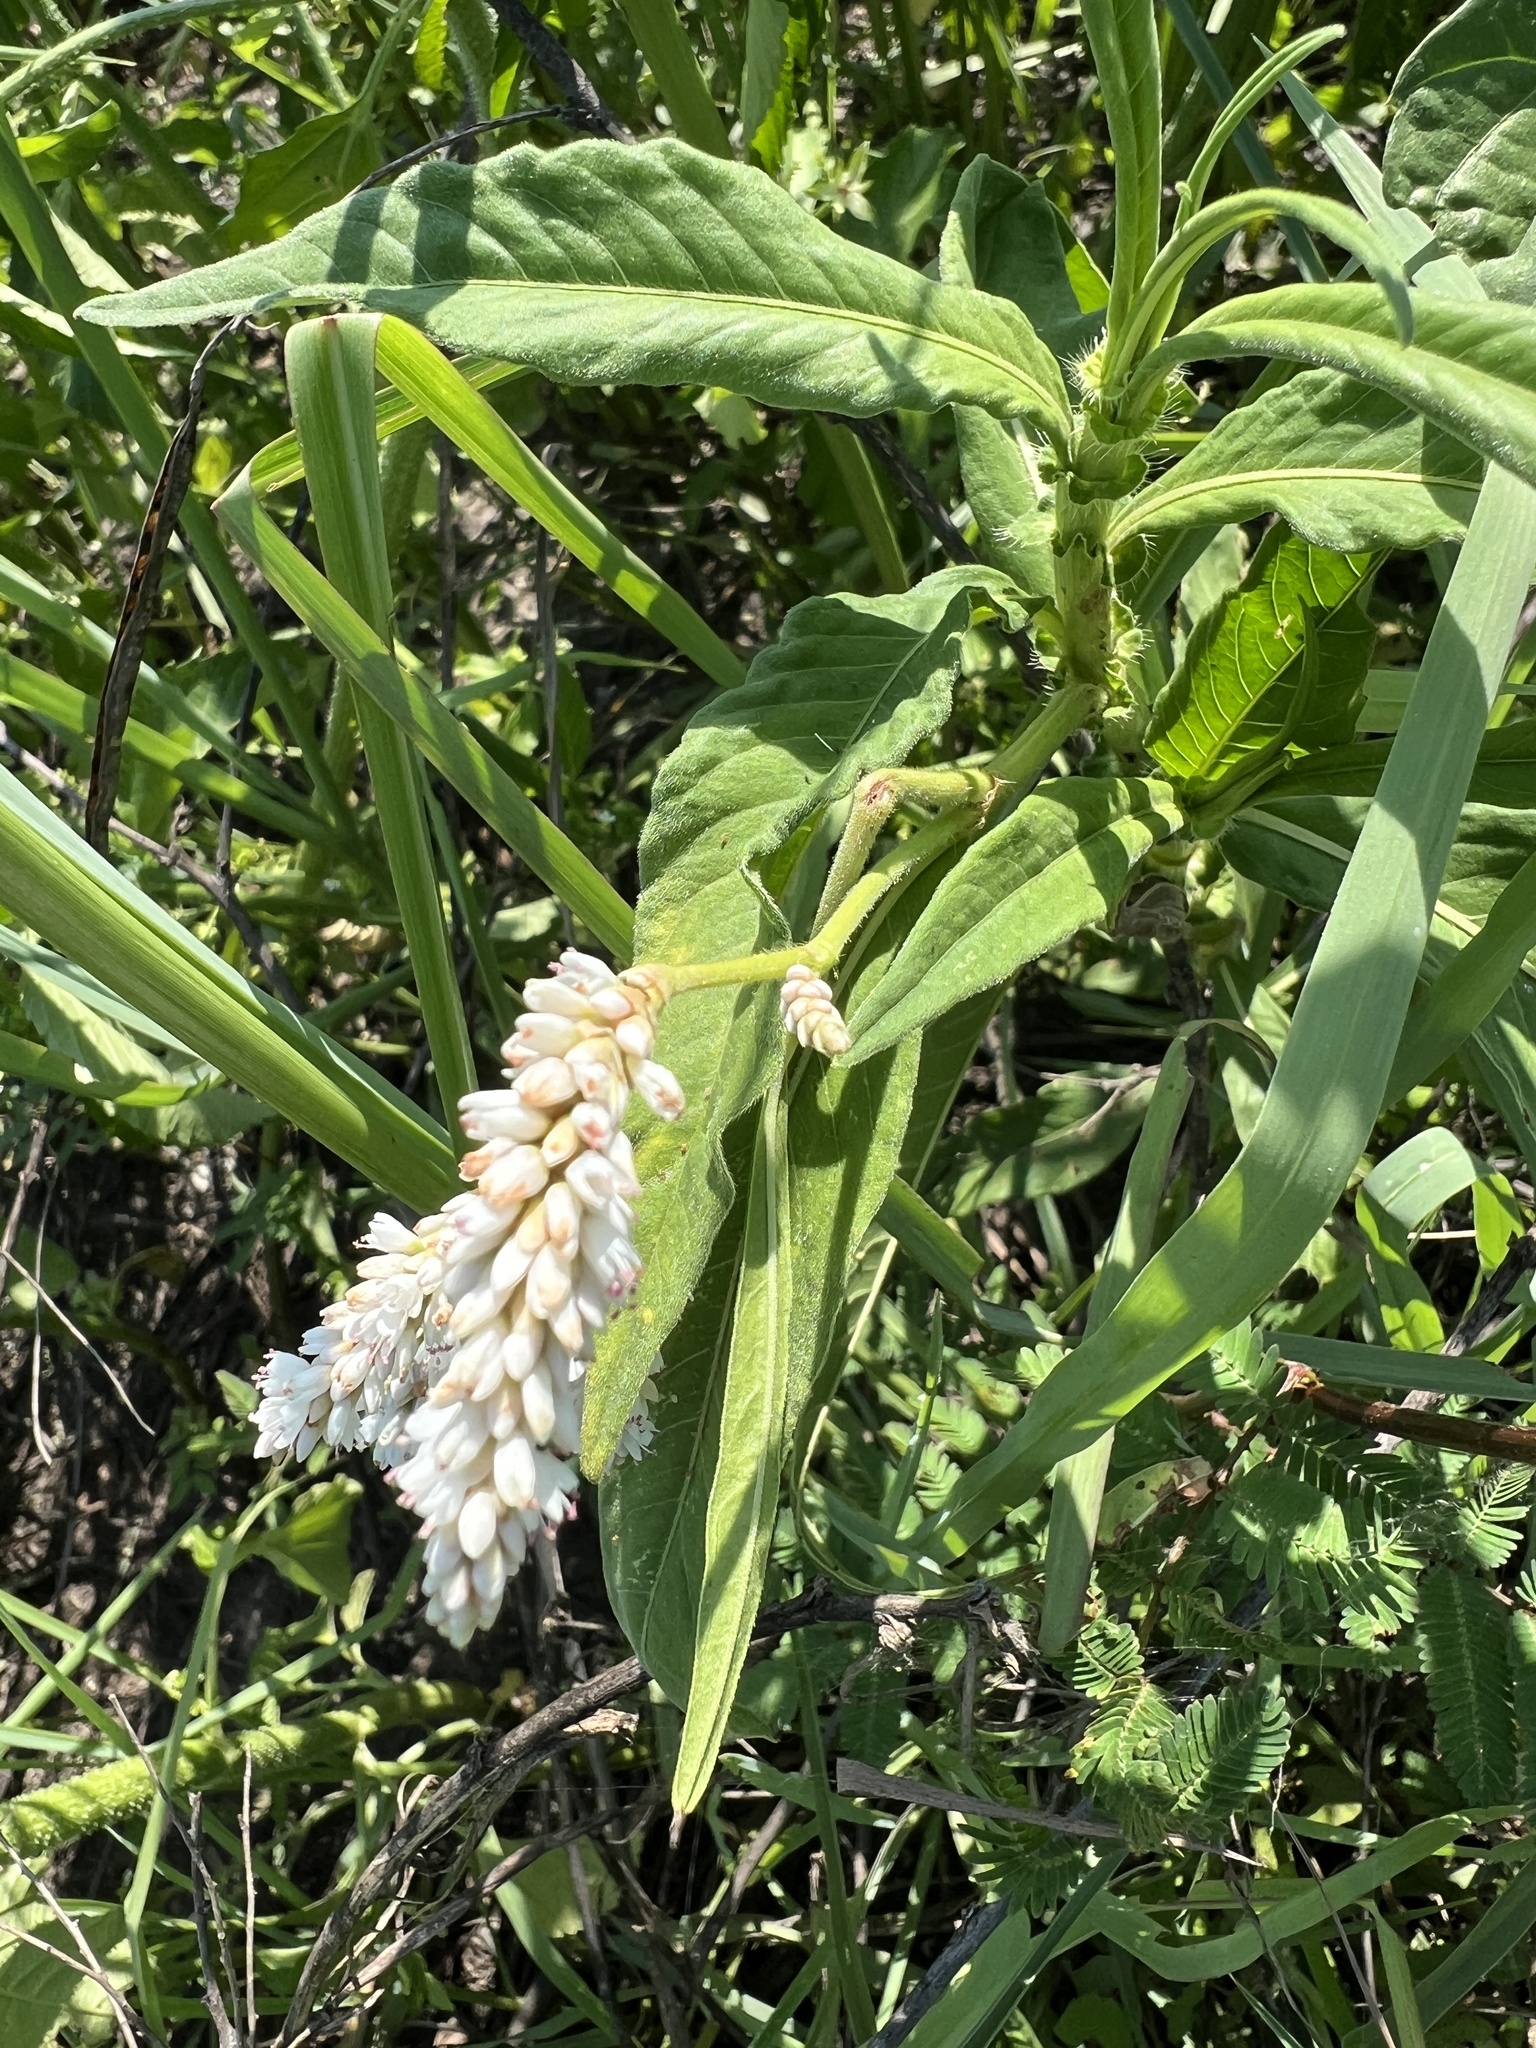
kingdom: Plantae
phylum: Tracheophyta
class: Magnoliopsida
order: Caryophyllales
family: Polygonaceae
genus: Persicaria
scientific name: Persicaria limbata
